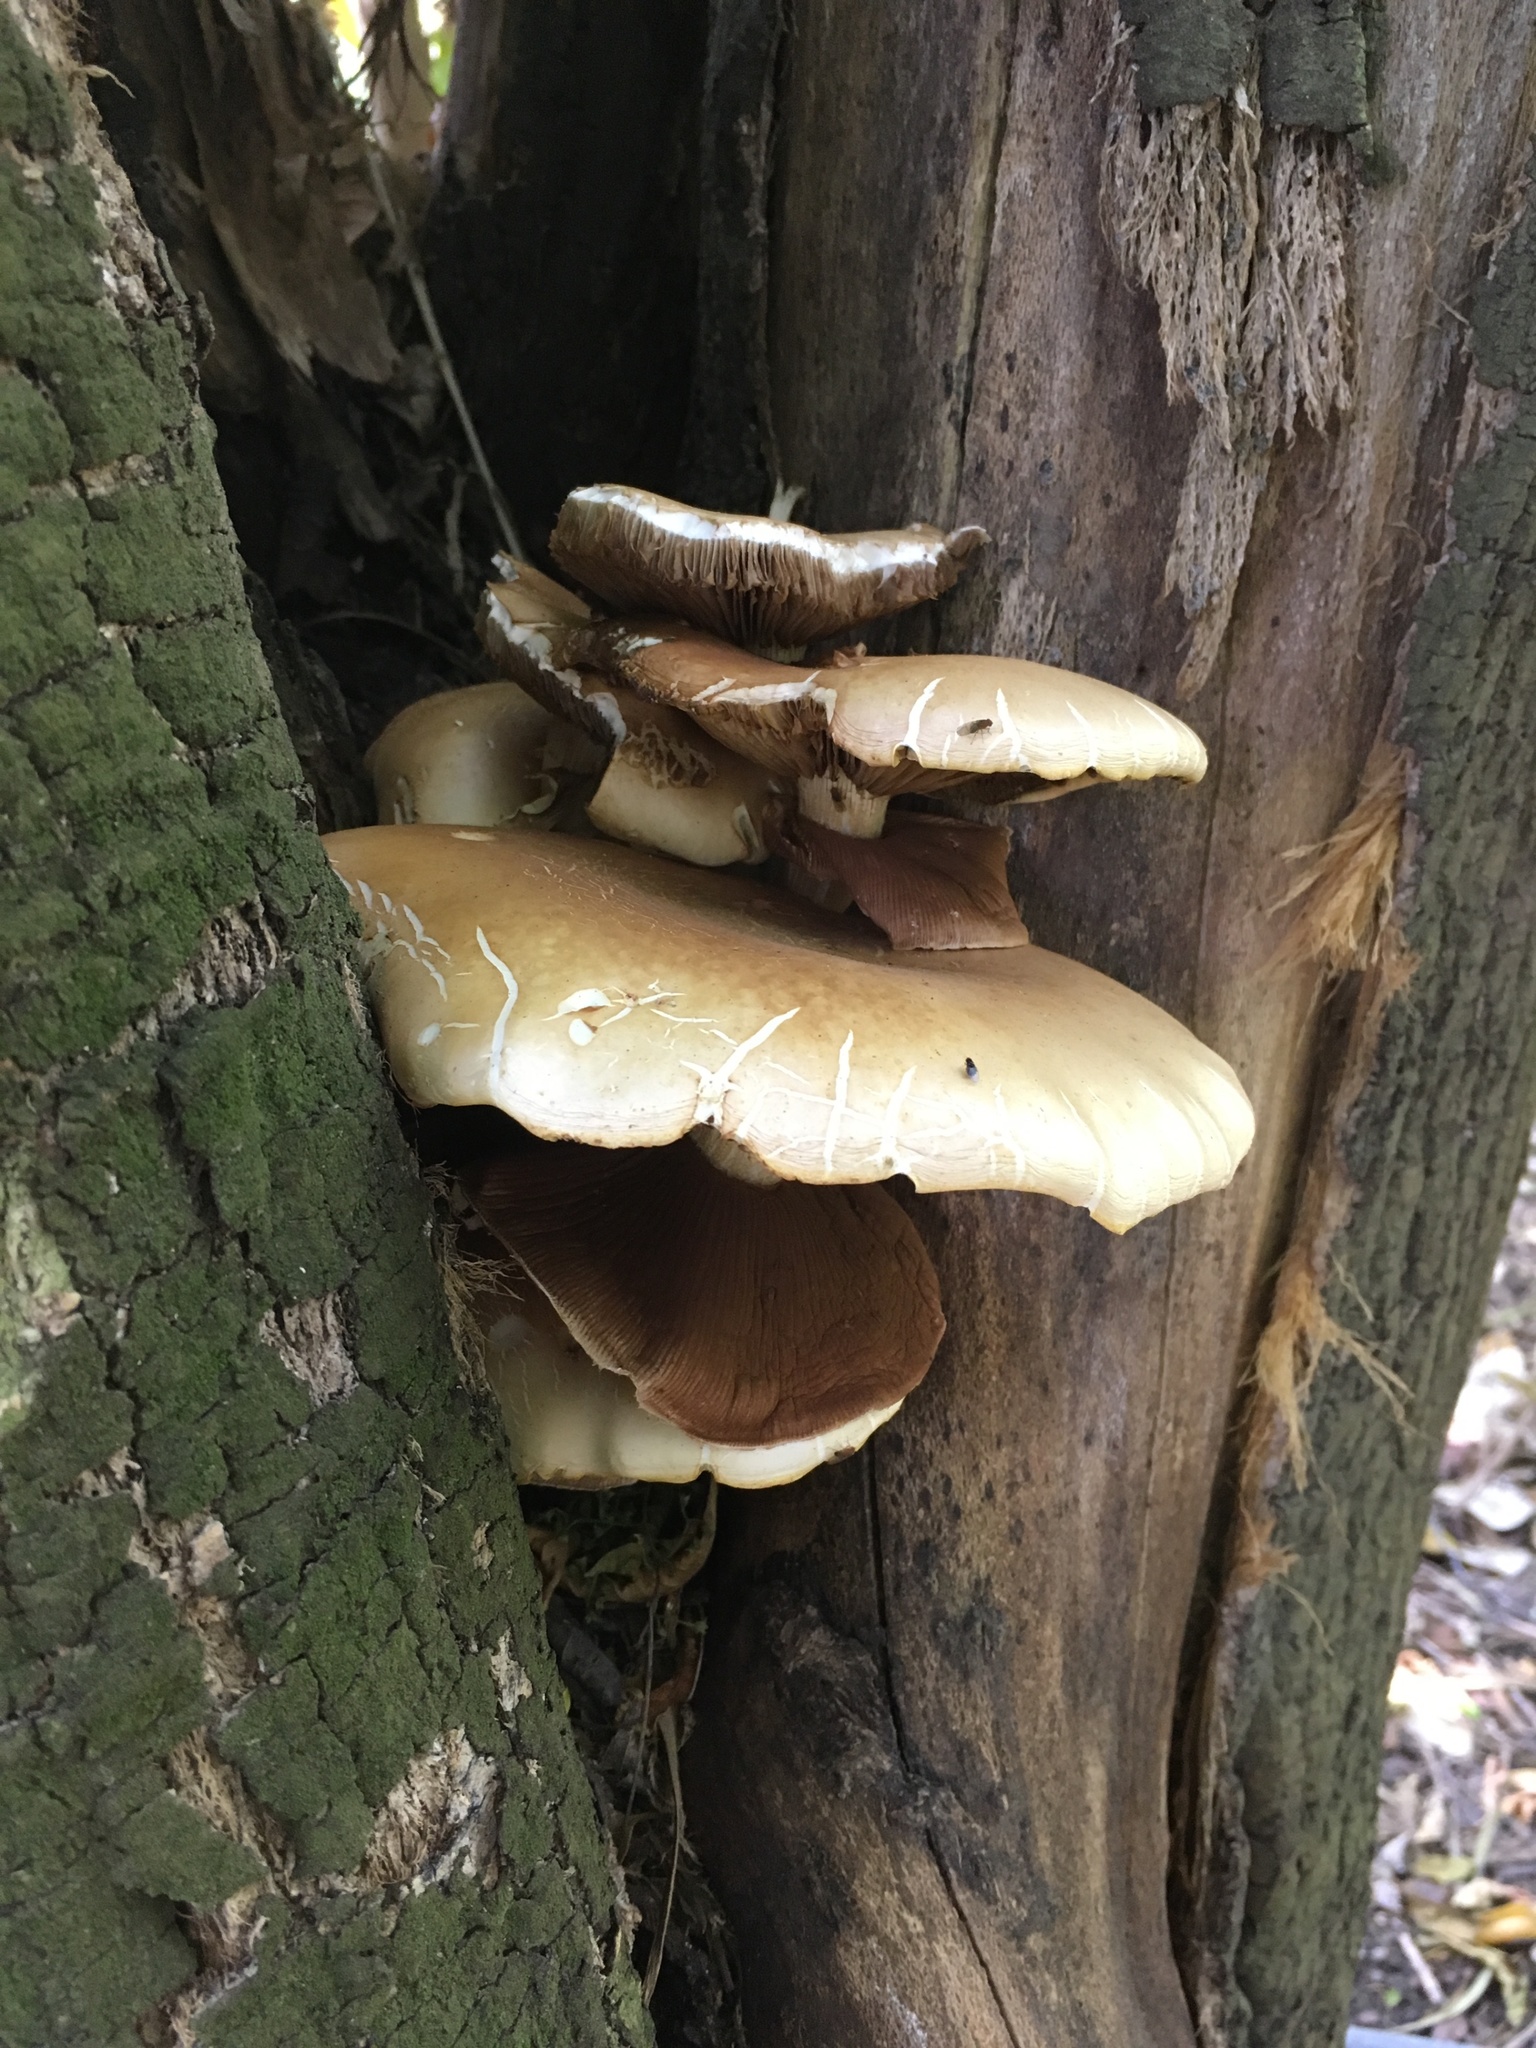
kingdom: Fungi
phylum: Basidiomycota
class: Agaricomycetes
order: Agaricales
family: Tubariaceae
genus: Cyclocybe
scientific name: Cyclocybe parasitica
